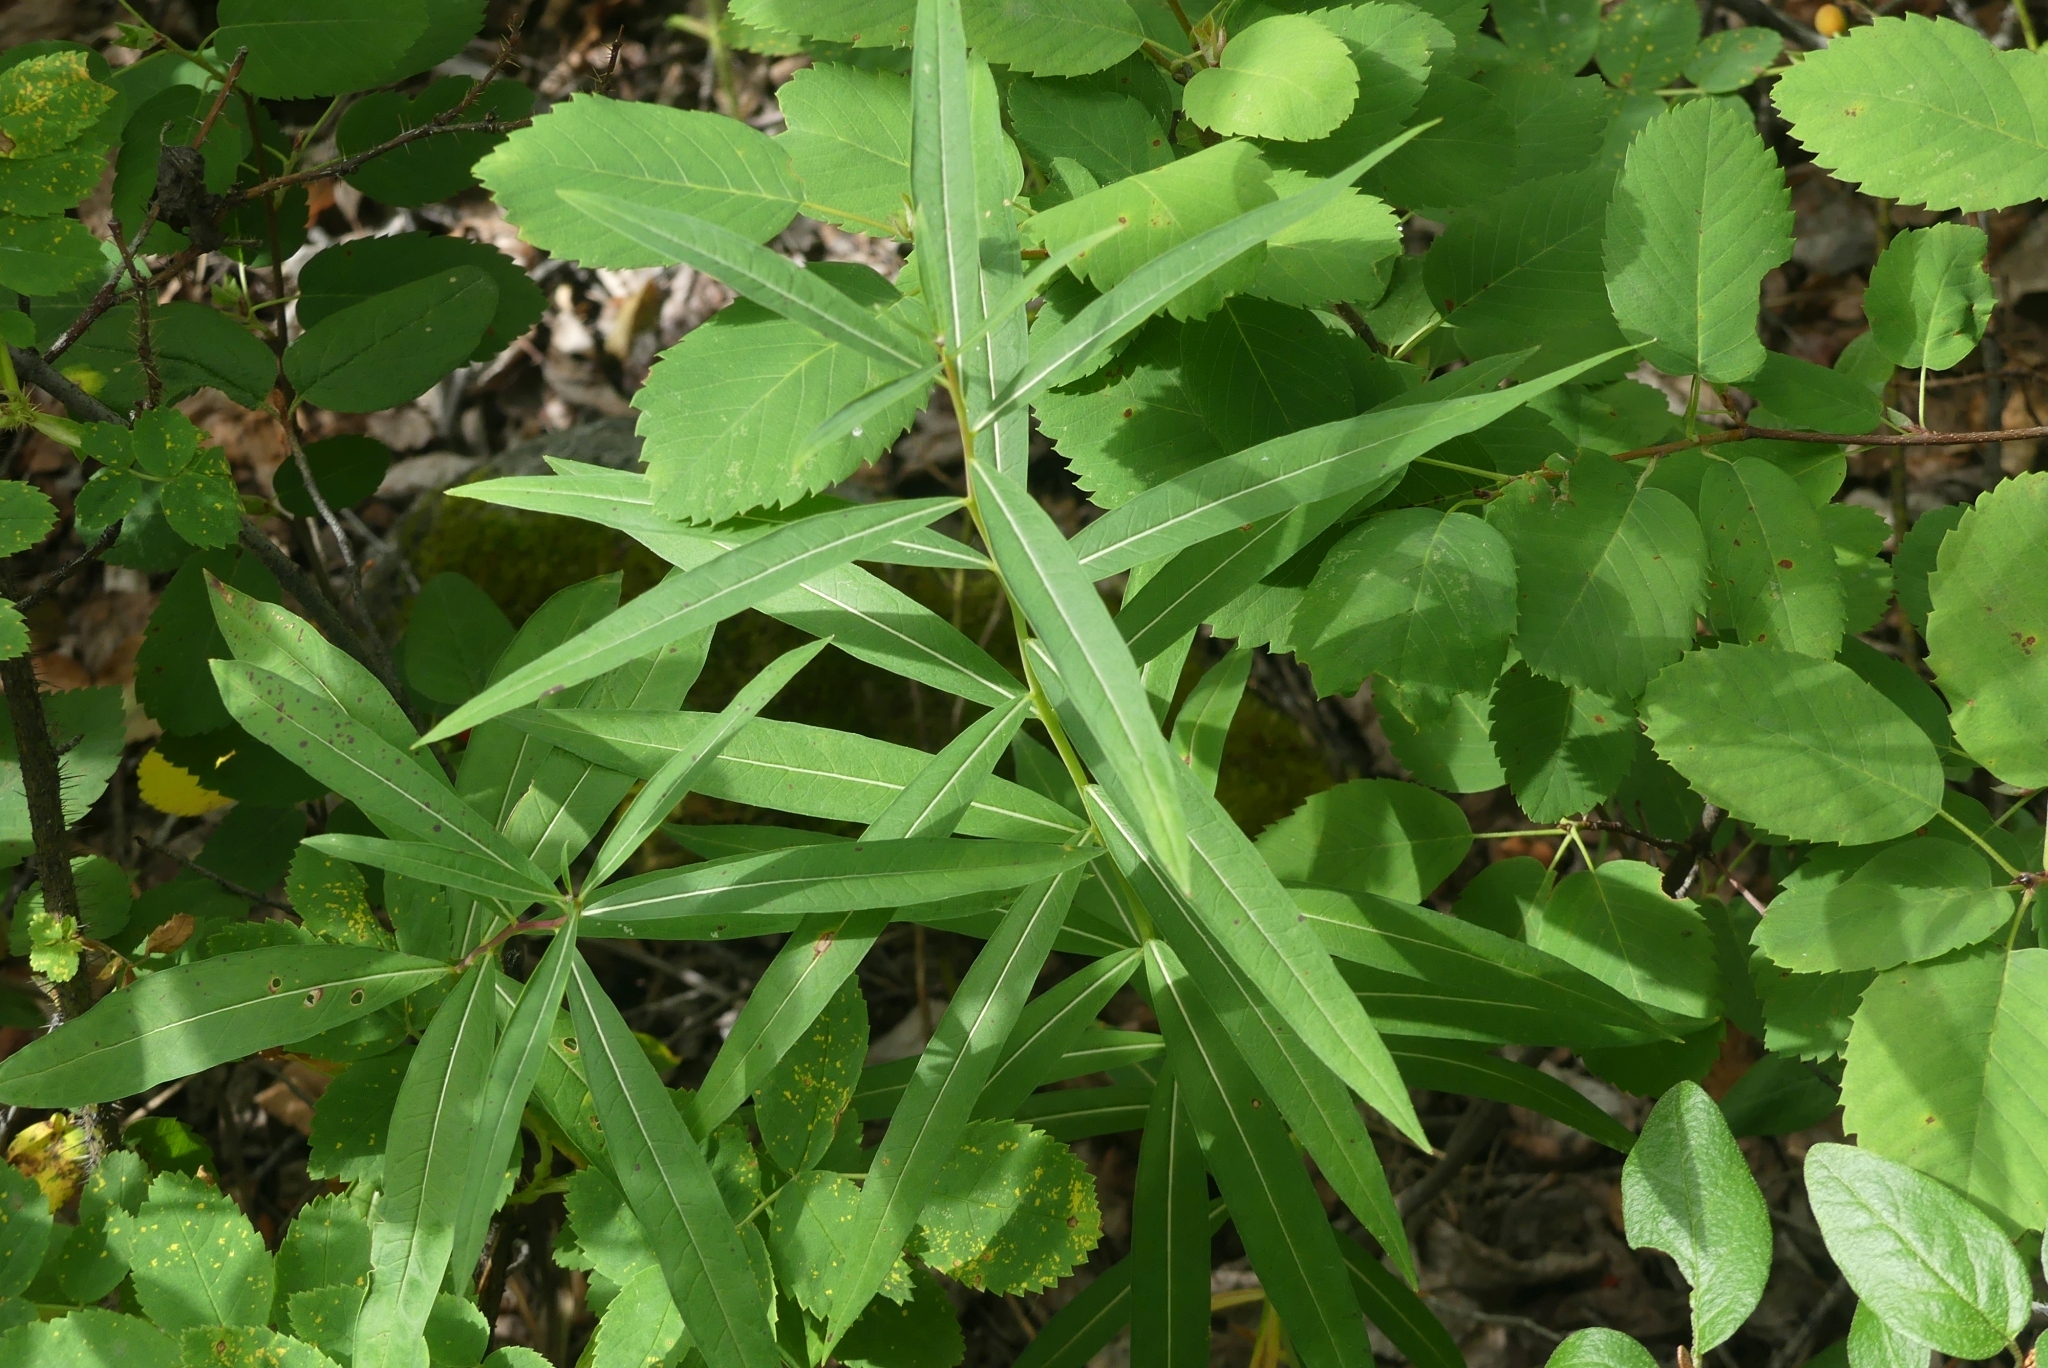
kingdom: Plantae
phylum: Tracheophyta
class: Magnoliopsida
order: Myrtales
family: Onagraceae
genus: Chamaenerion
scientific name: Chamaenerion angustifolium
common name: Fireweed
